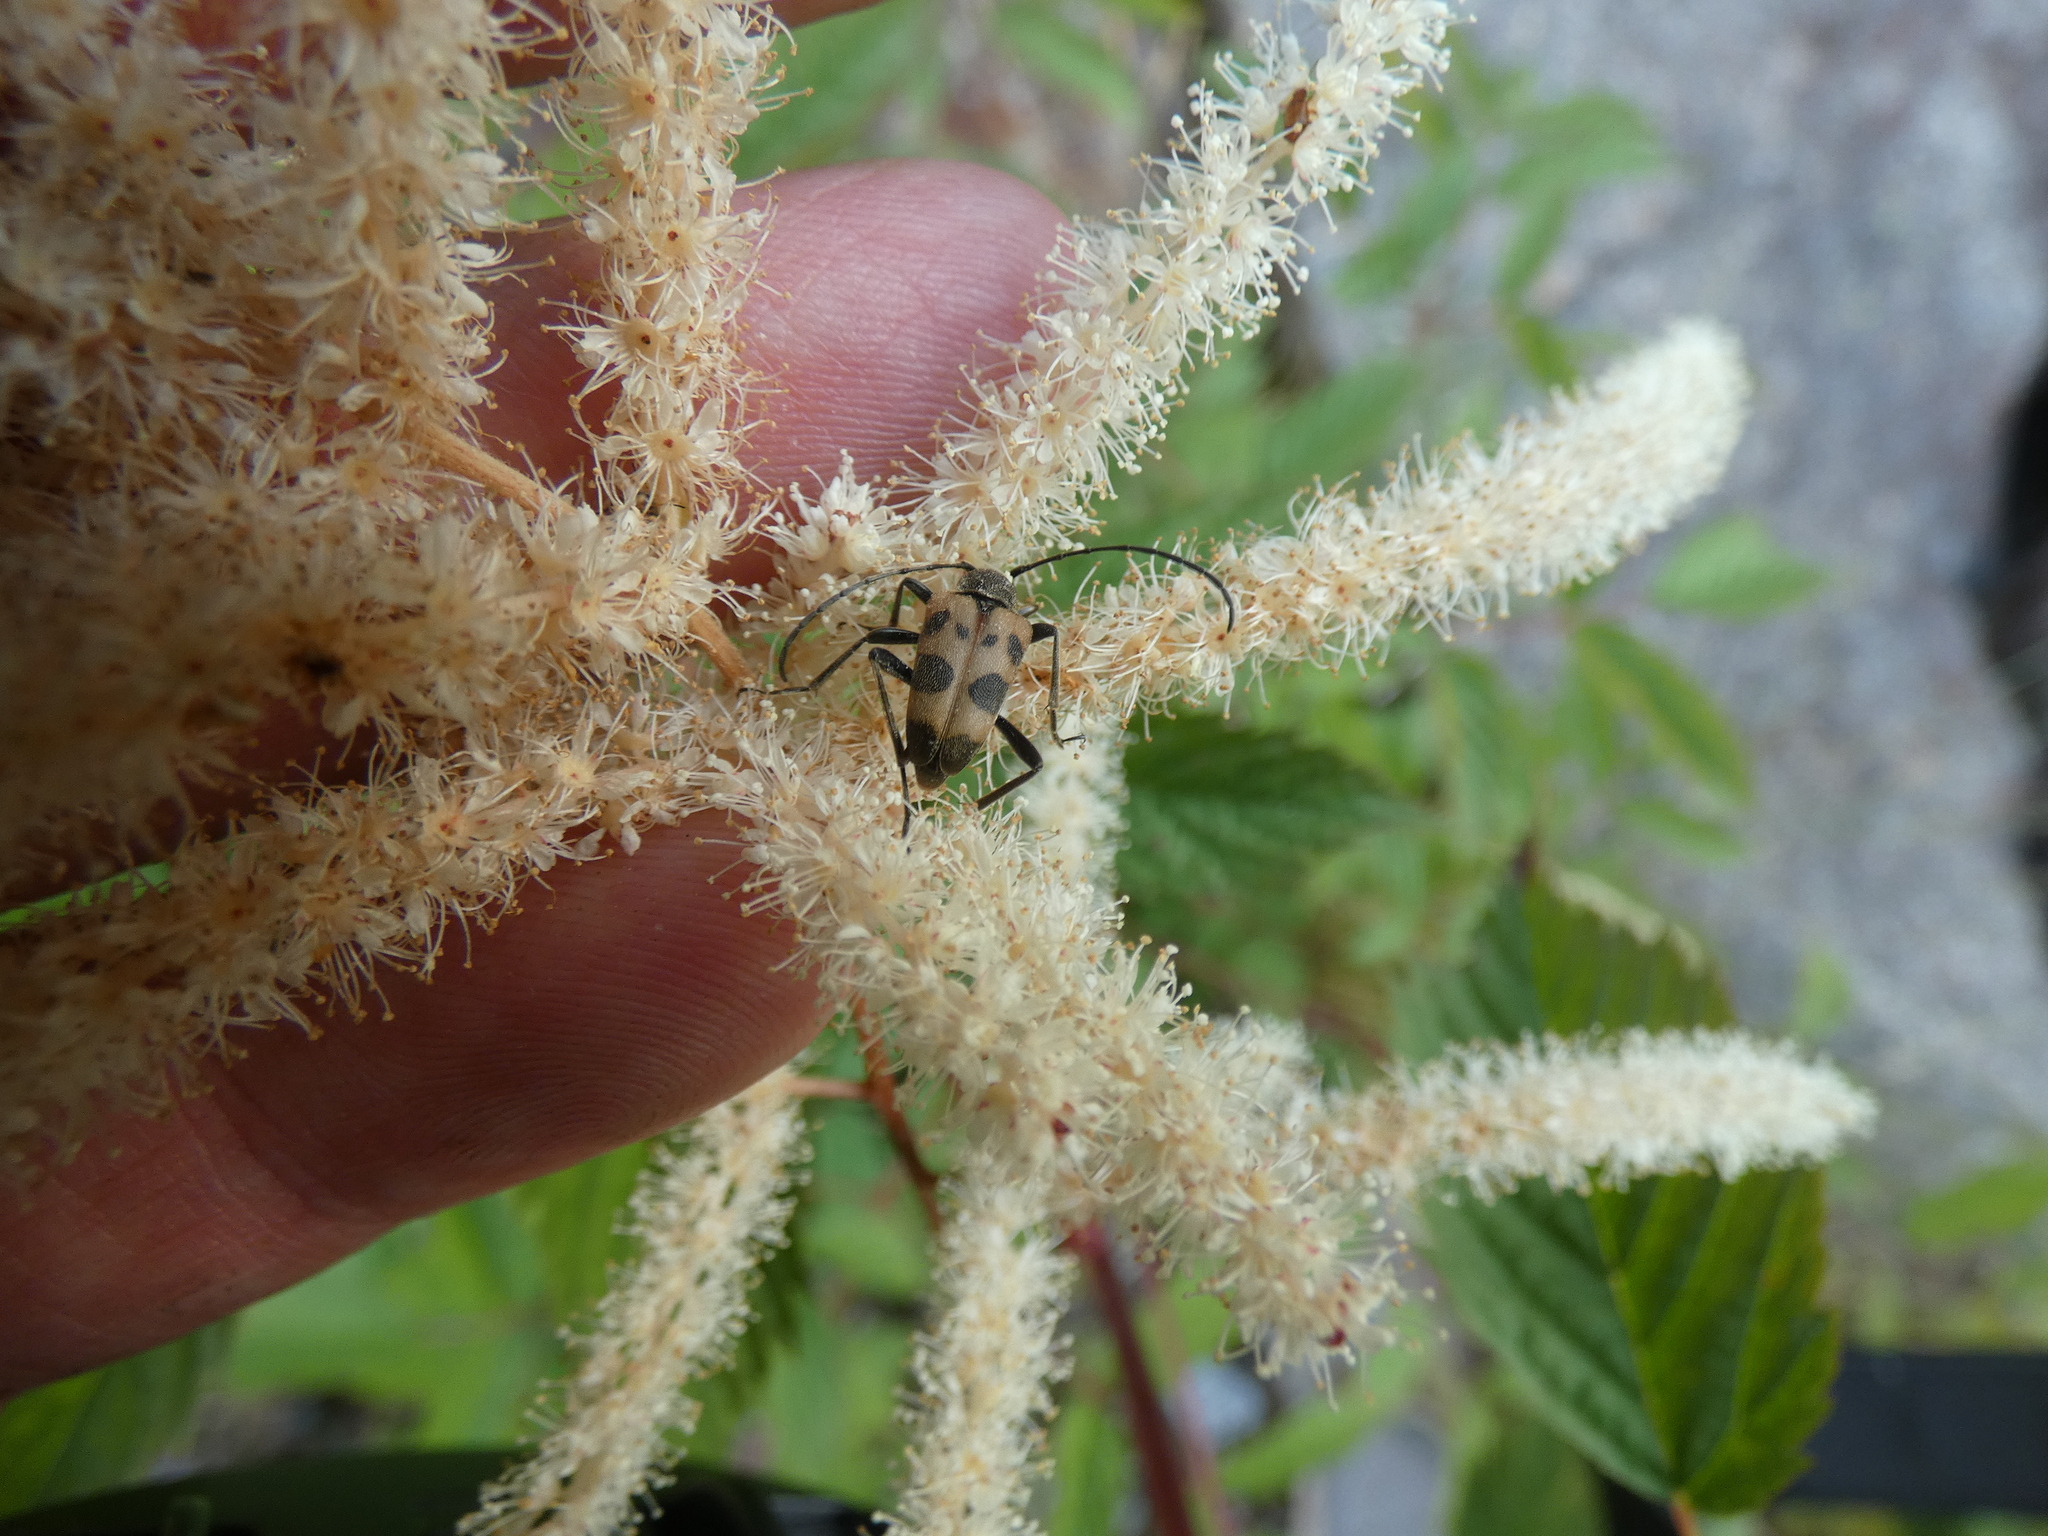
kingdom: Animalia
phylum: Arthropoda
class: Insecta
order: Coleoptera
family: Cerambycidae
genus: Pachytodes
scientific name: Pachytodes cerambyciformis
